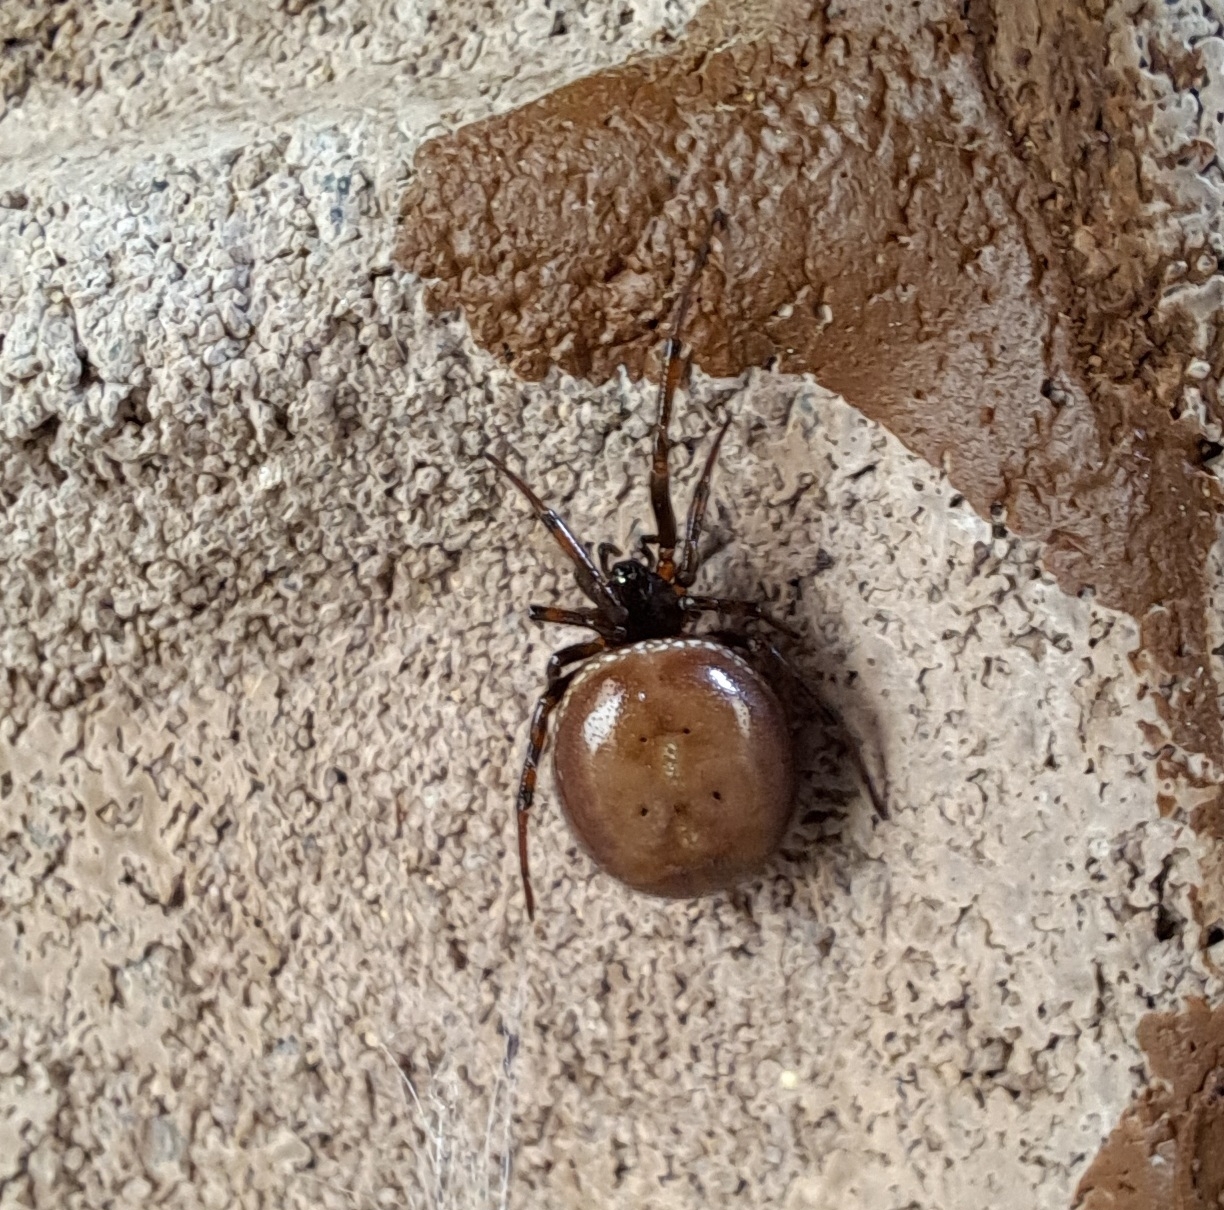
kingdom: Animalia
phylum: Arthropoda
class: Arachnida
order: Araneae
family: Theridiidae
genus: Steatoda
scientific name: Steatoda bipunctata
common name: False widow
